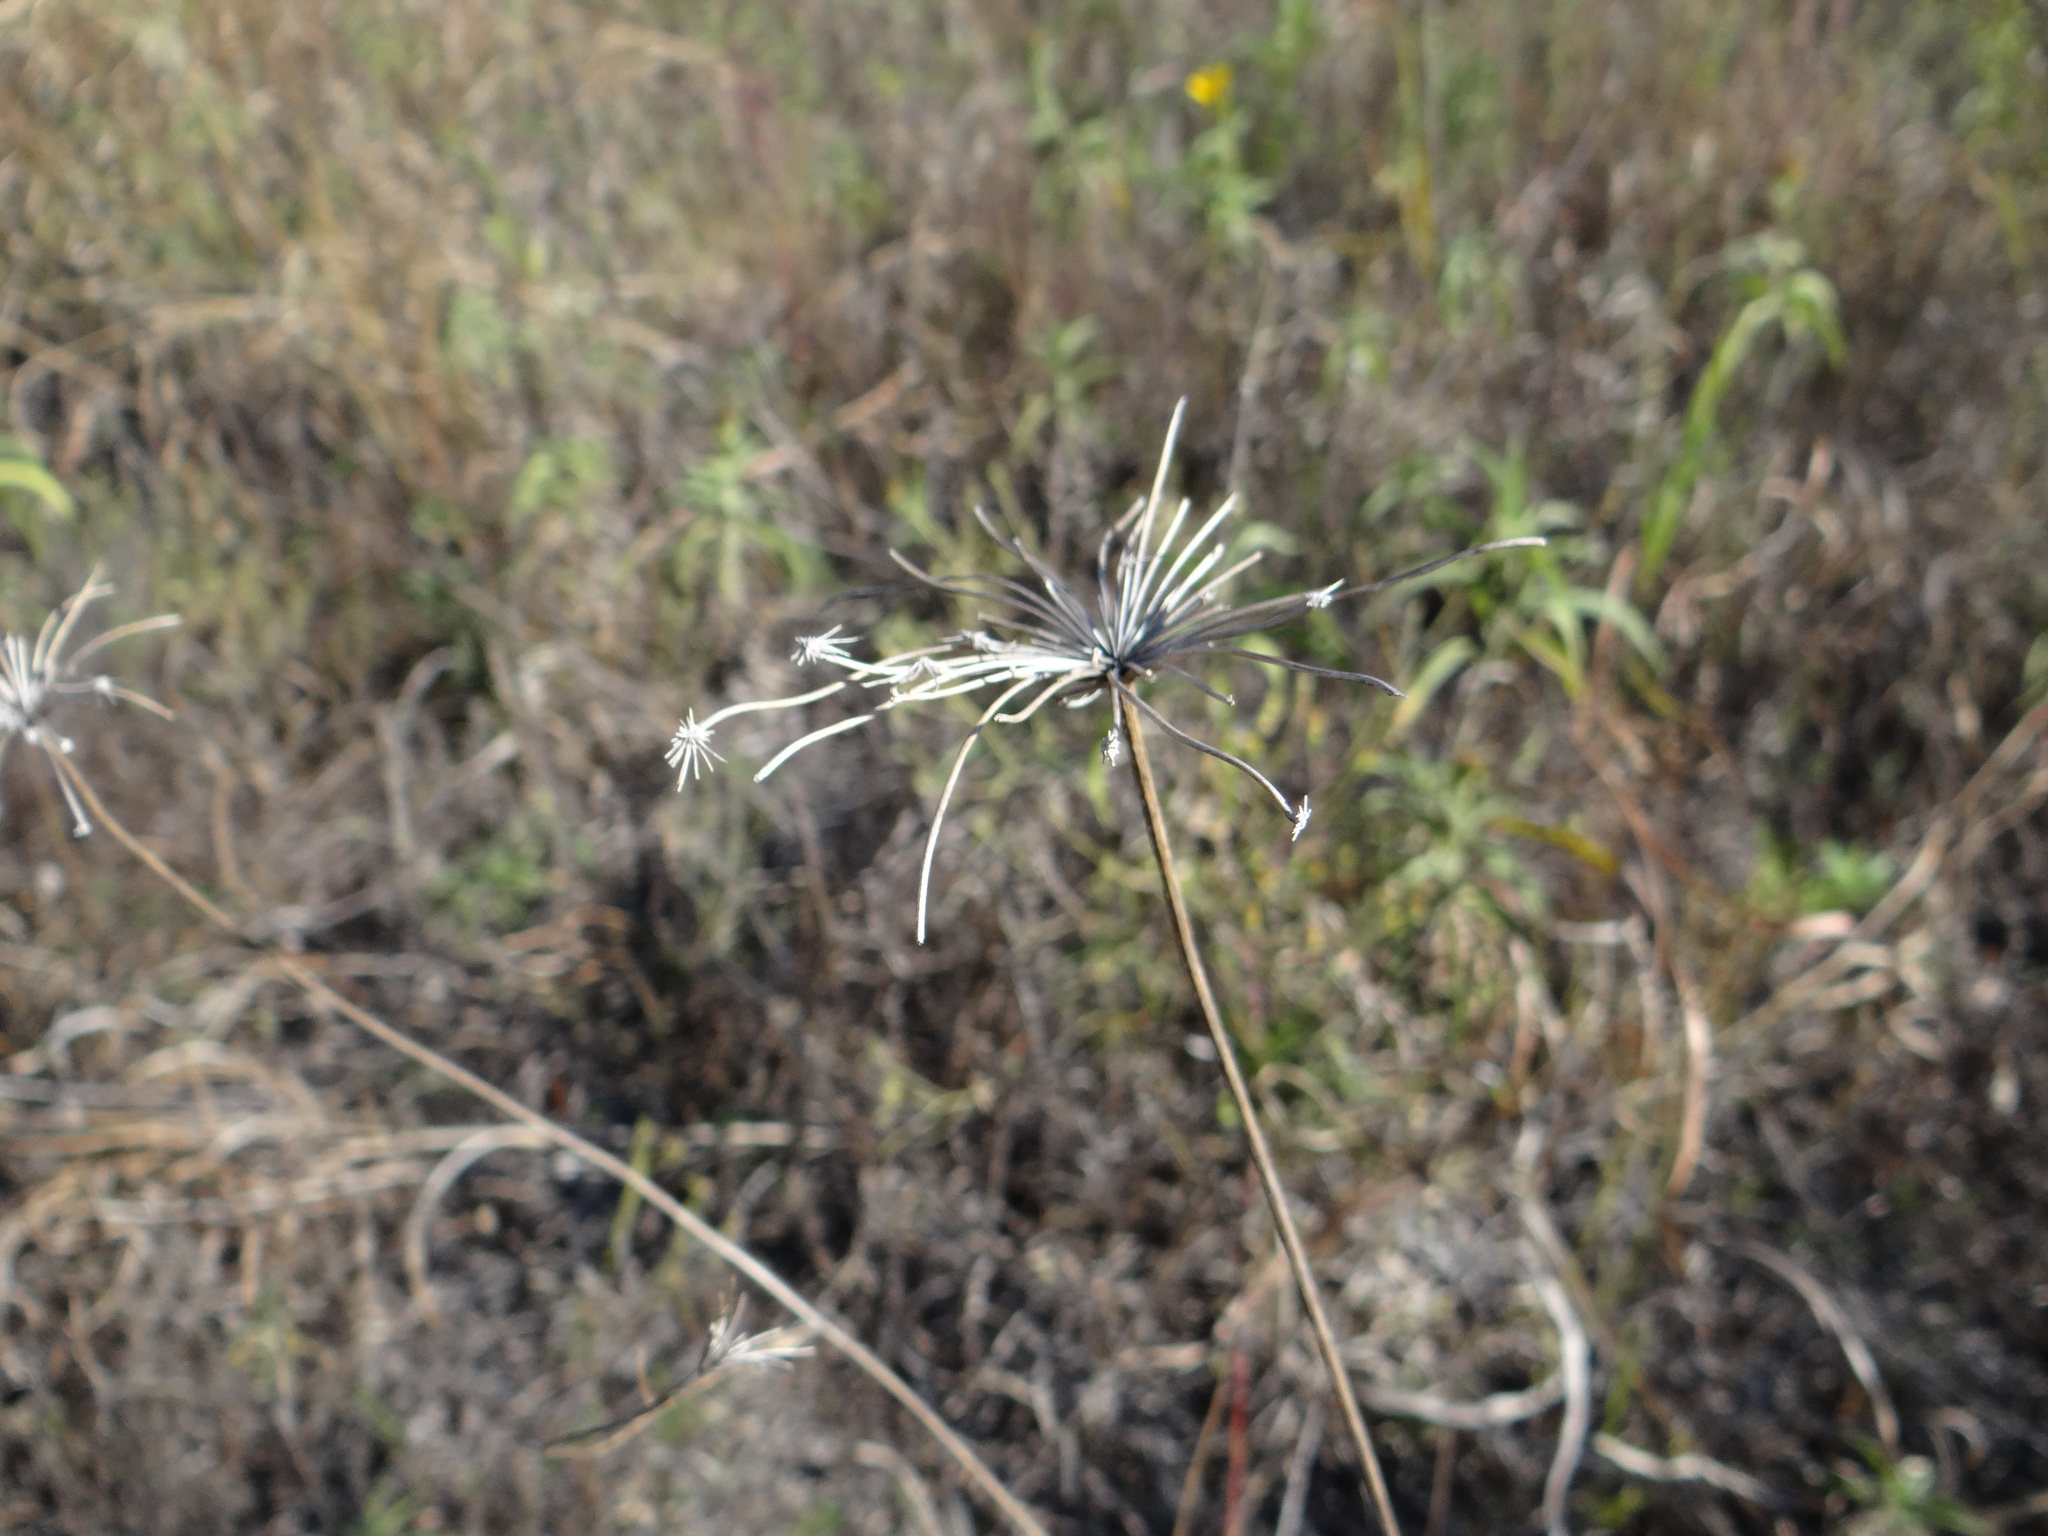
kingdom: Plantae
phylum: Tracheophyta
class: Magnoliopsida
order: Apiales
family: Apiaceae
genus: Daucus
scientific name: Daucus carota
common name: Wild carrot
